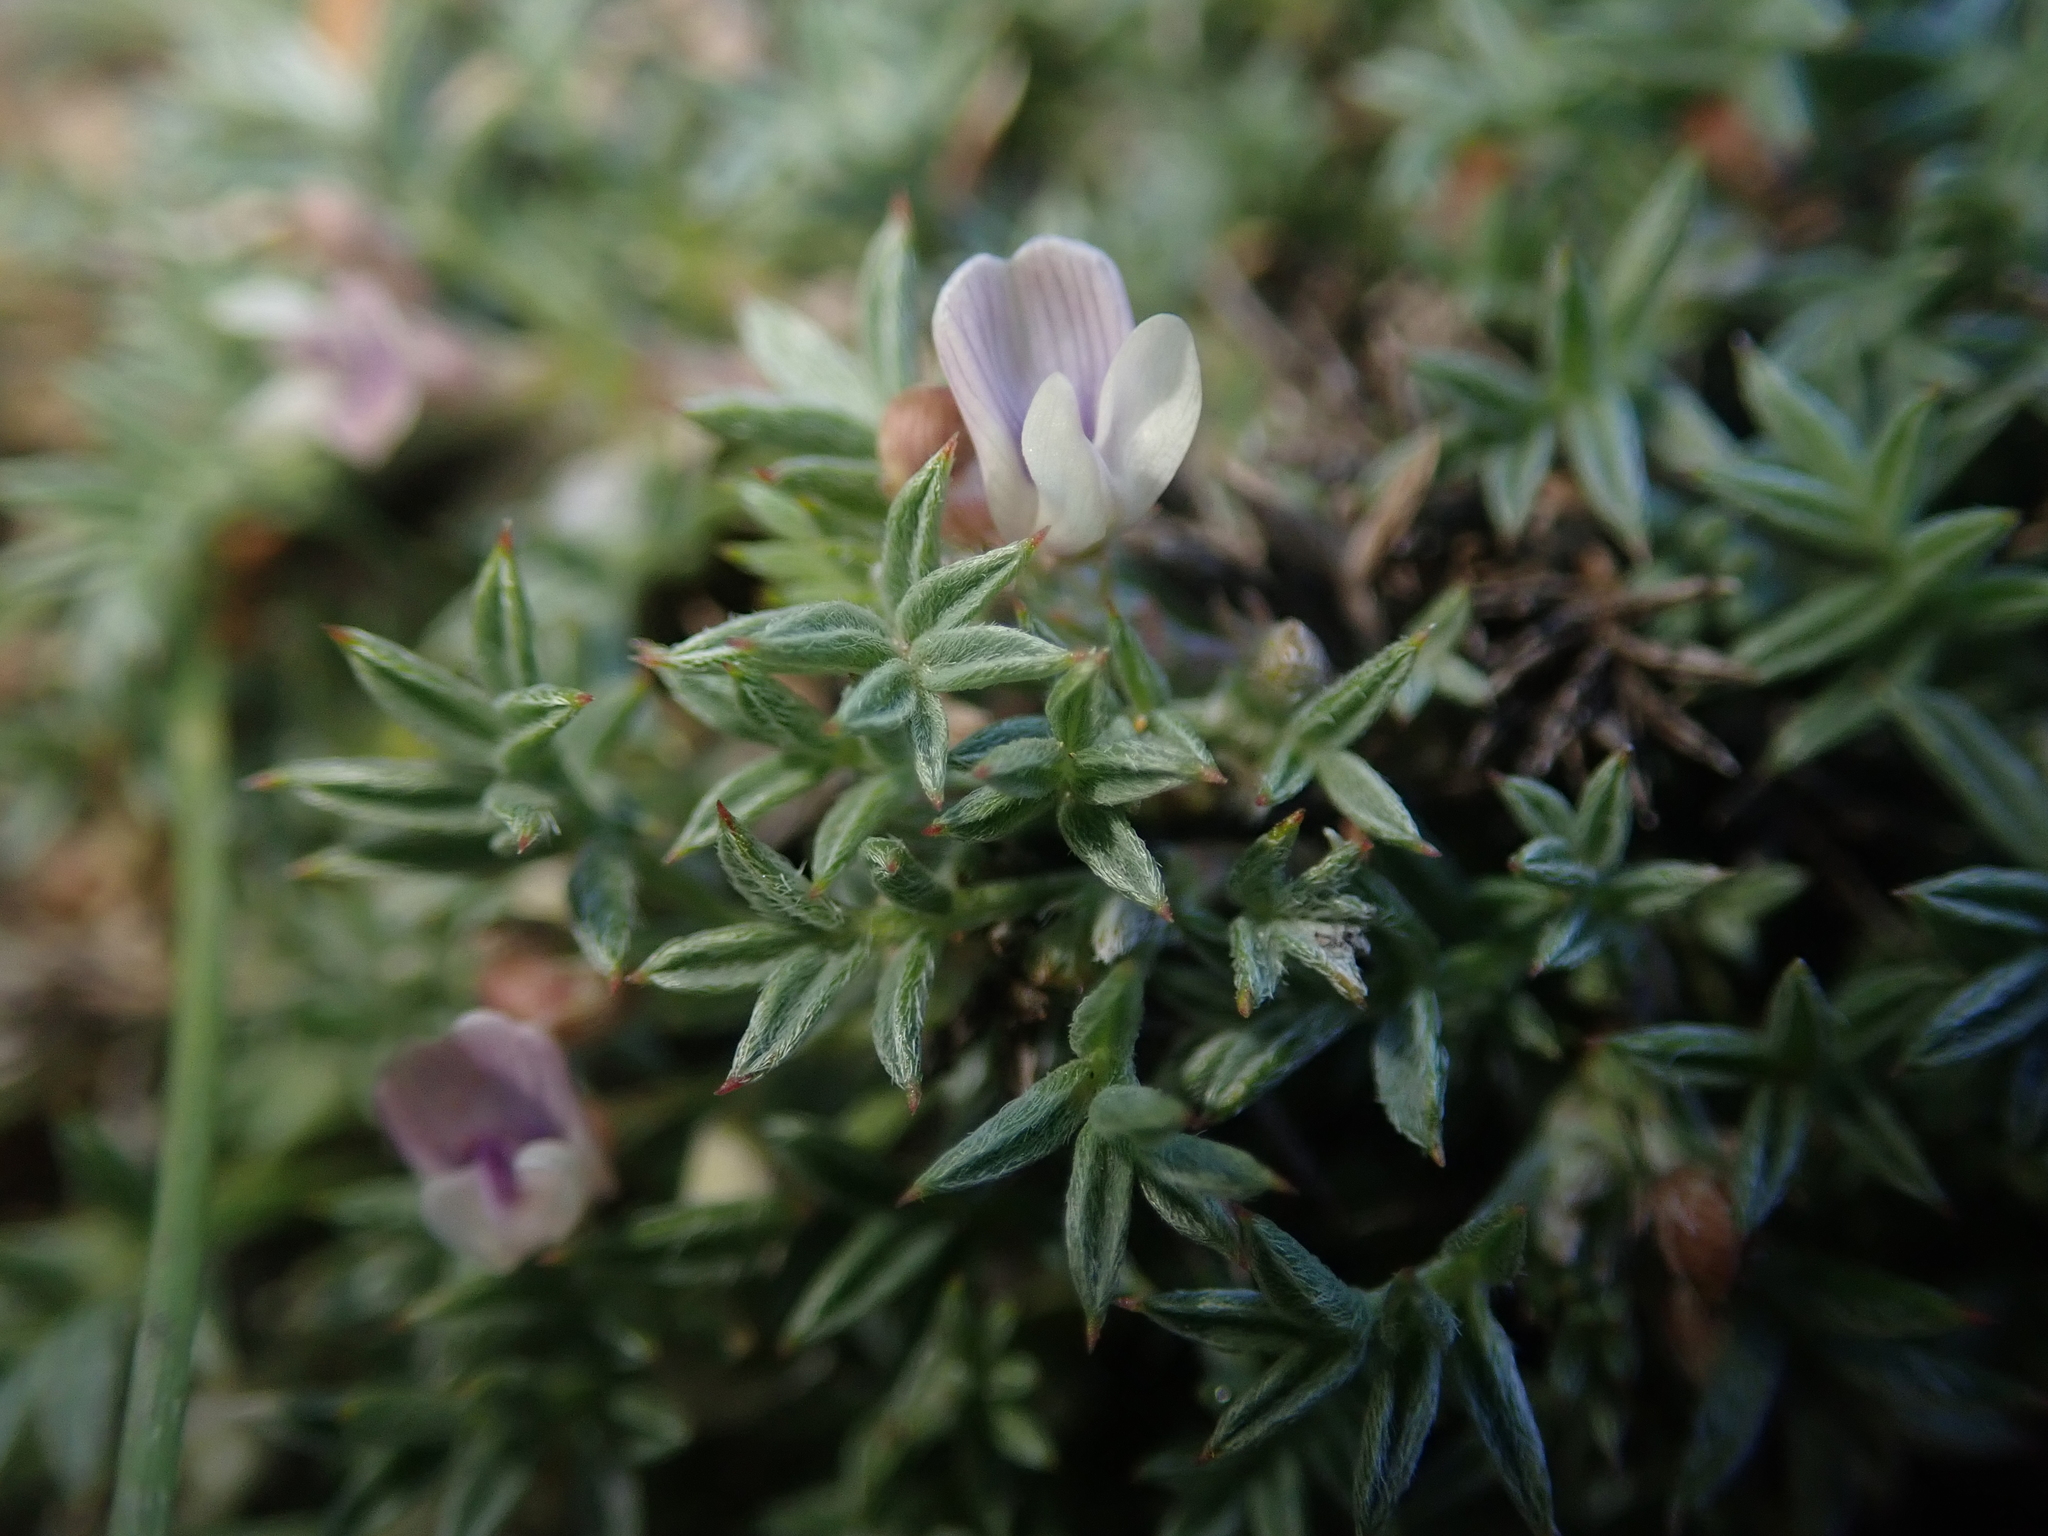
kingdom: Plantae
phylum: Tracheophyta
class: Magnoliopsida
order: Fabales
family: Fabaceae
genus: Astragalus
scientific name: Astragalus kentrophyta
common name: Prickly milk-vetch
